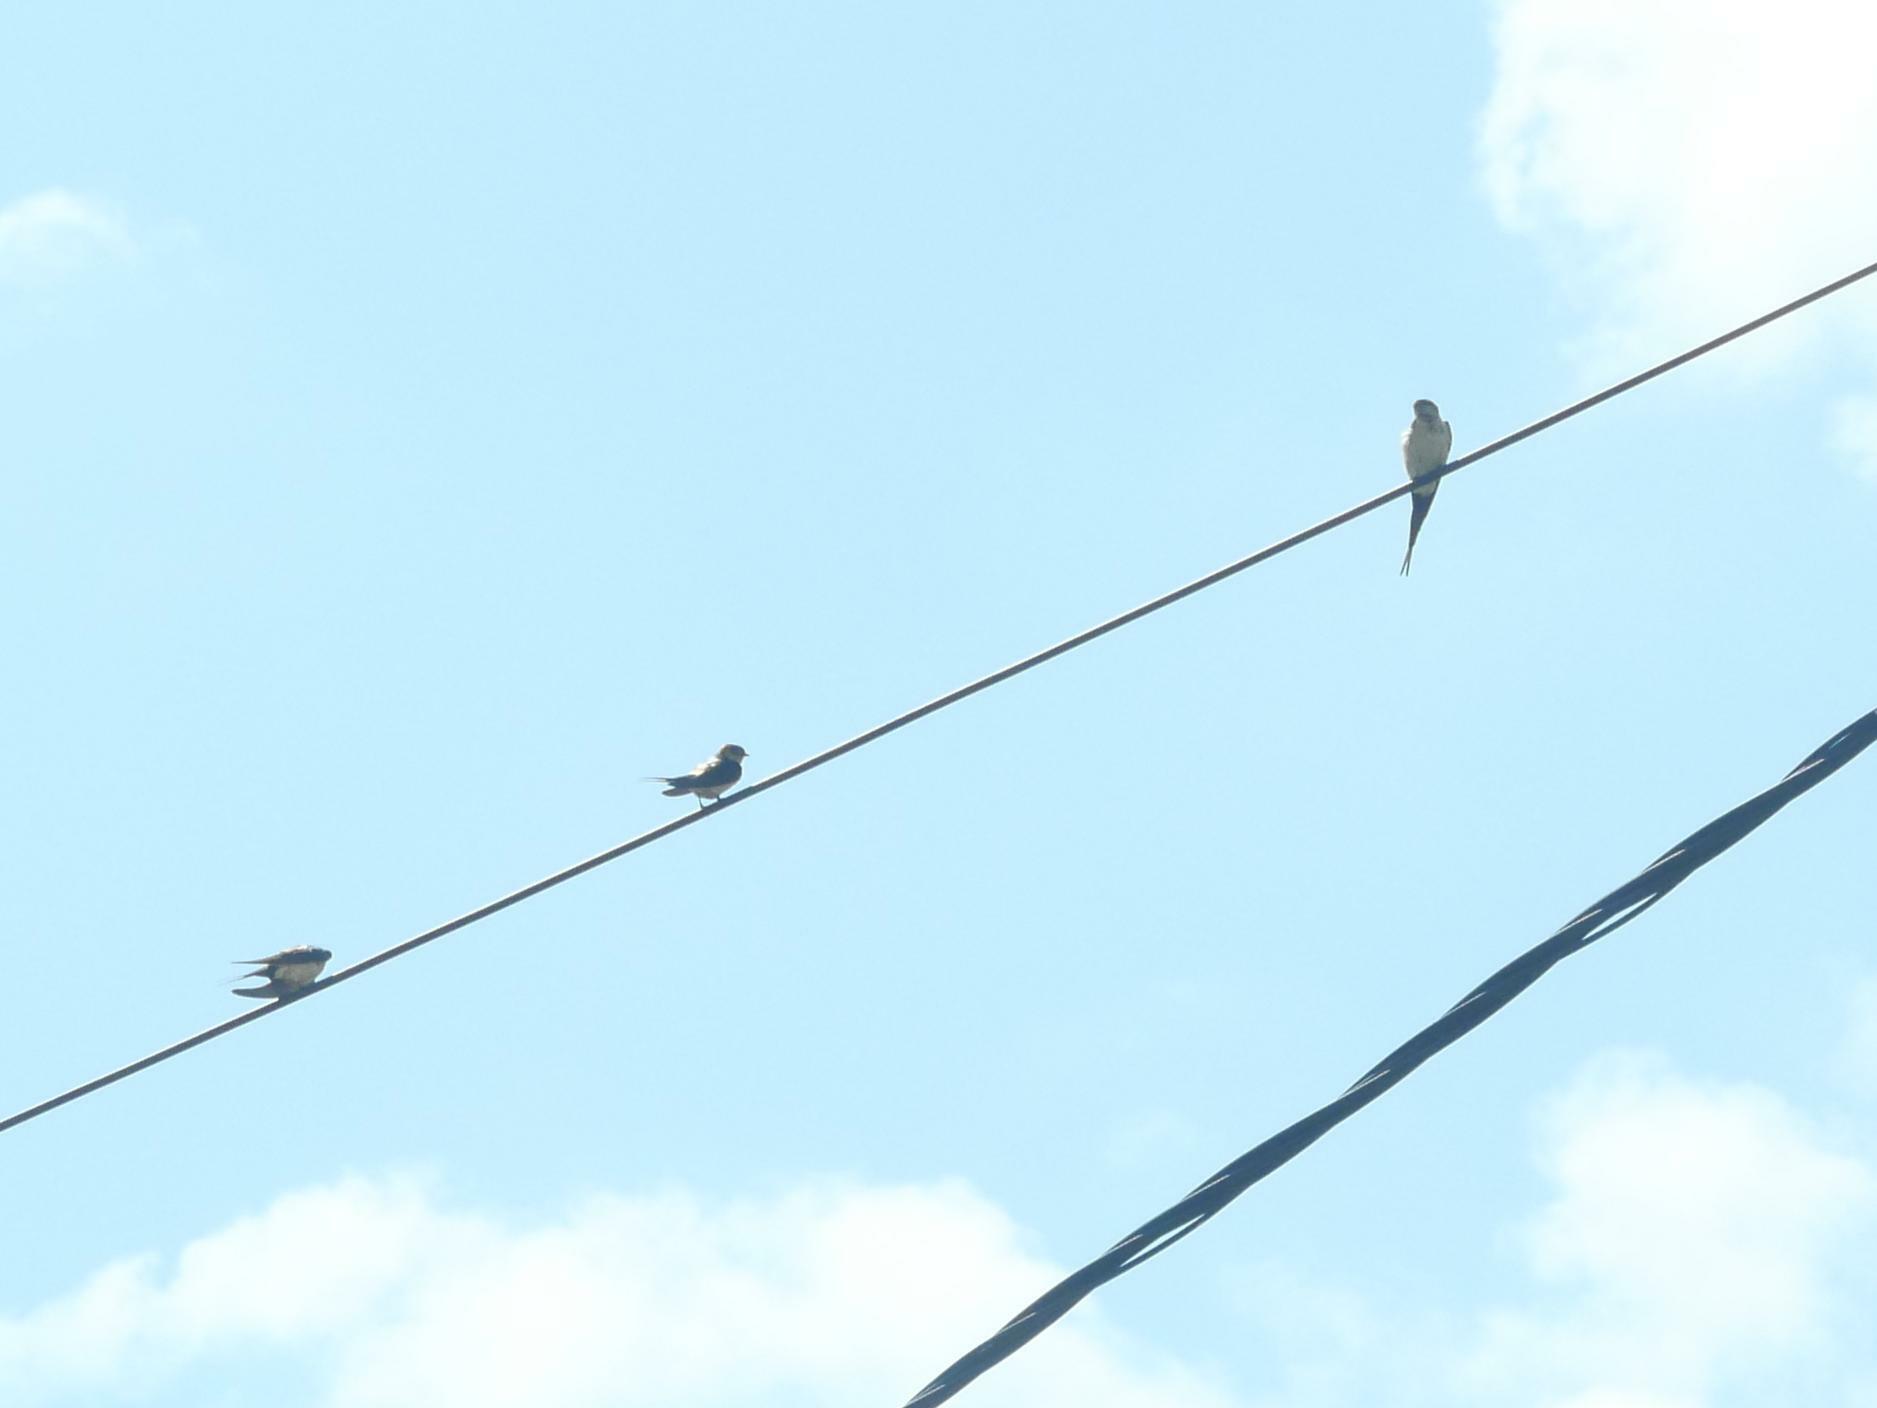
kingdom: Animalia
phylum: Chordata
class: Aves
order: Passeriformes
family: Hirundinidae
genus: Cecropis
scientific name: Cecropis daurica
